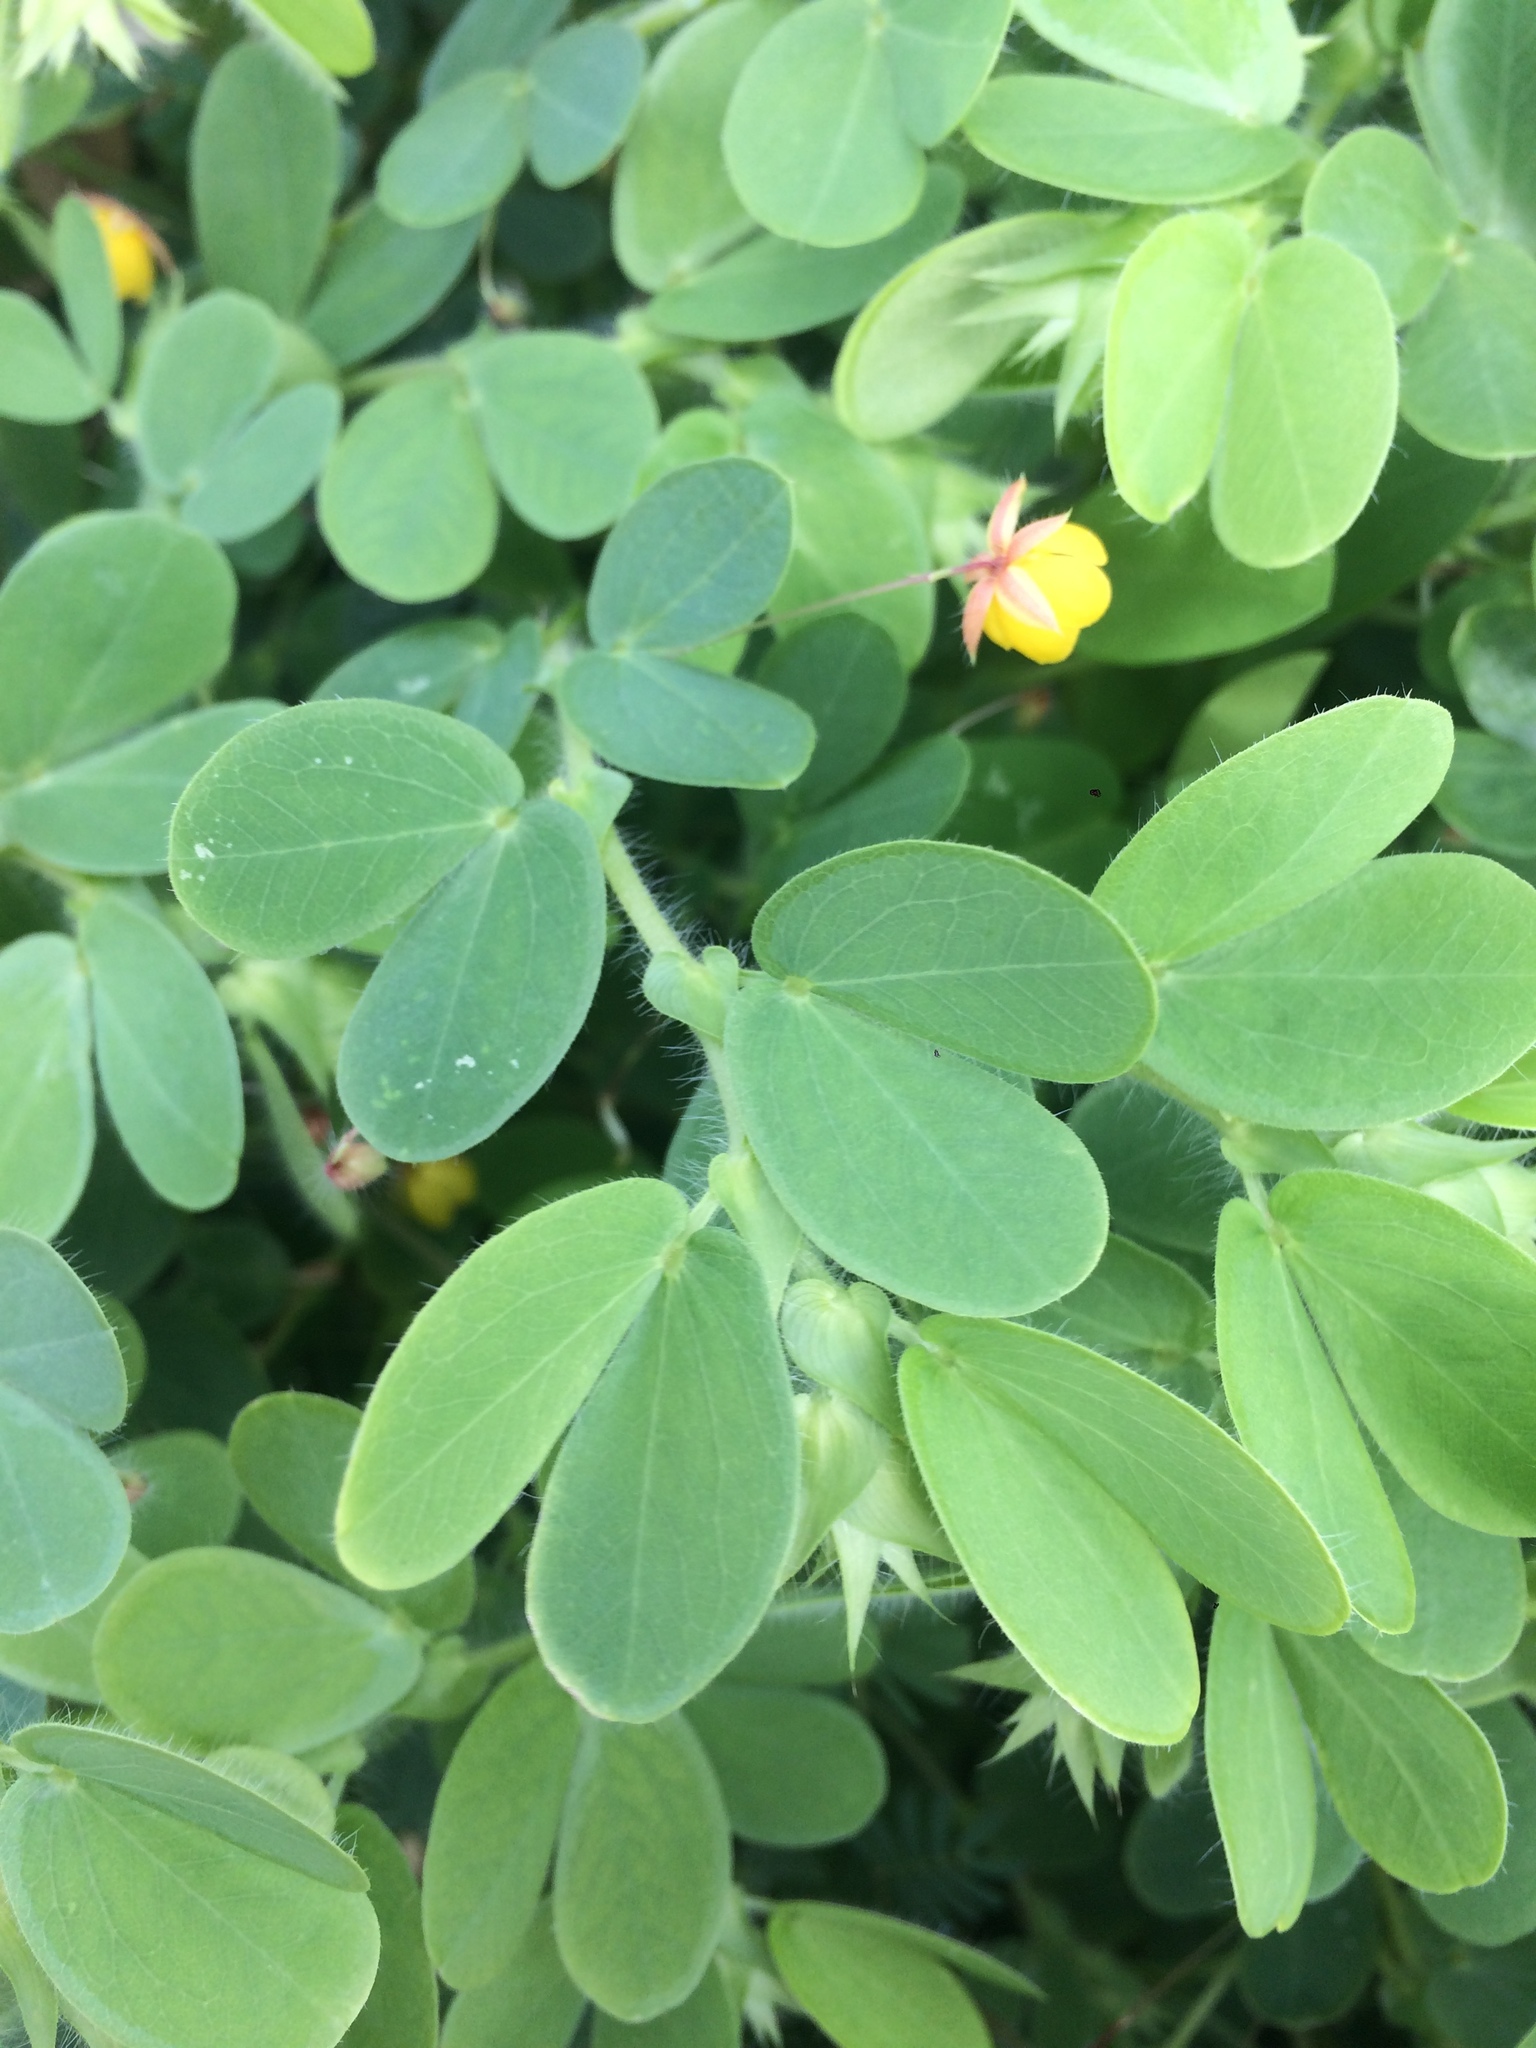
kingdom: Plantae
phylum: Tracheophyta
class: Magnoliopsida
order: Fabales
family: Fabaceae
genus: Chamaecrista
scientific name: Chamaecrista rotundifolia
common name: Round-leaf cassia
